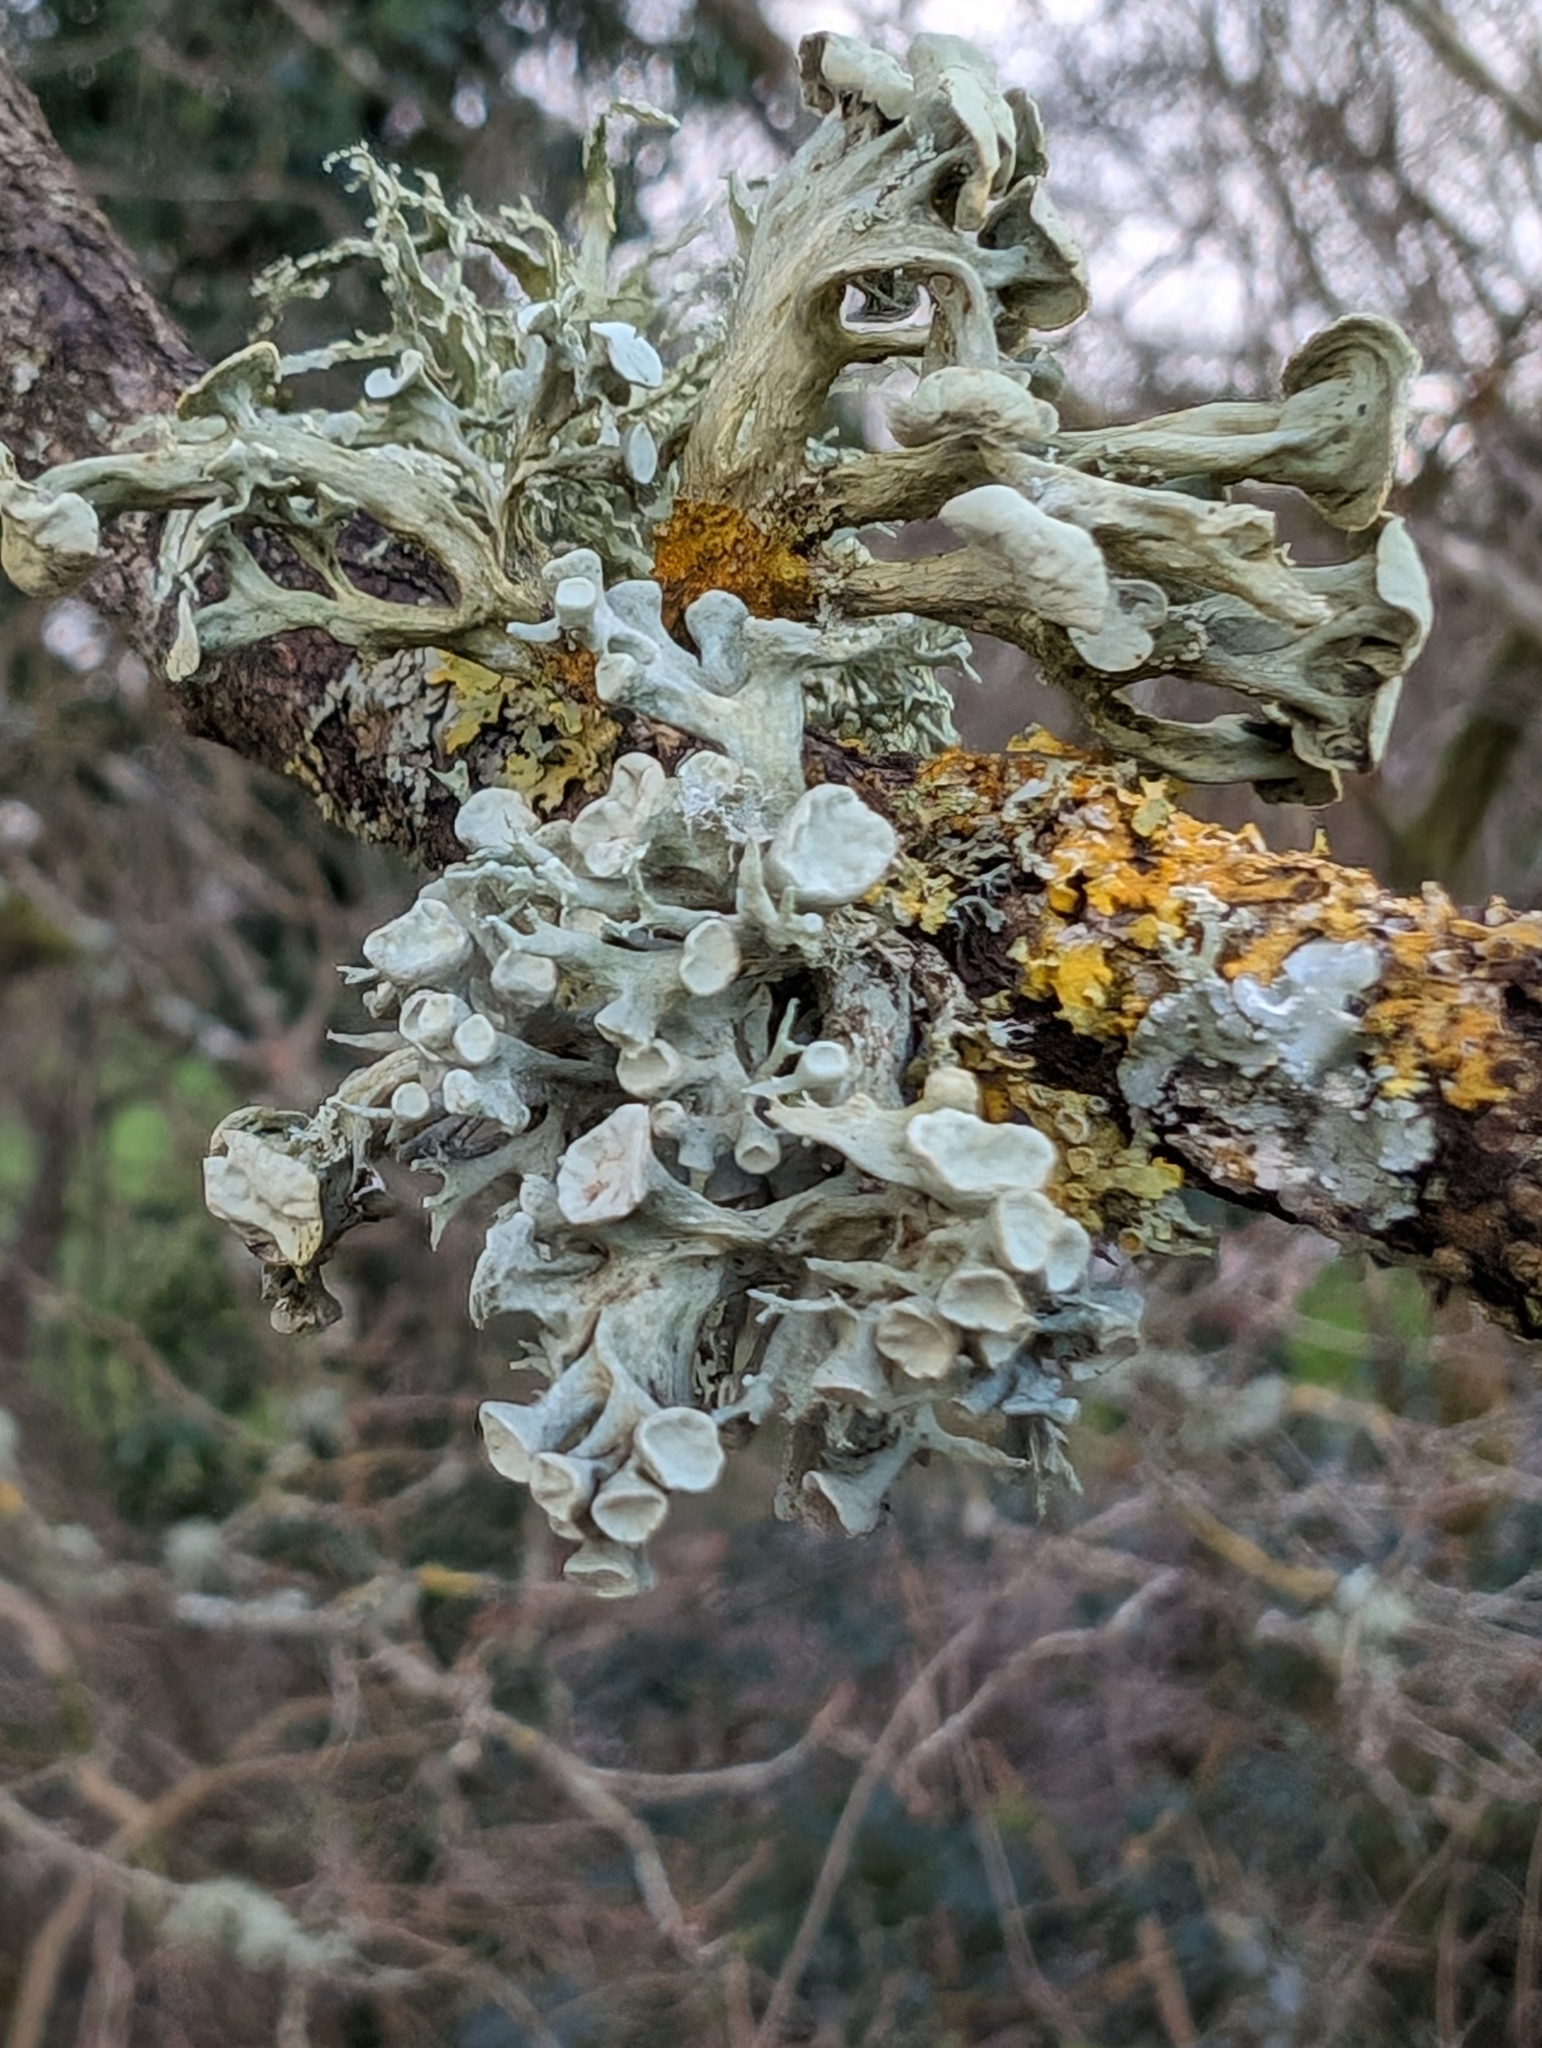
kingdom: Fungi
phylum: Ascomycota
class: Lecanoromycetes
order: Lecanorales
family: Ramalinaceae
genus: Ramalina
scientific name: Ramalina fastigiata
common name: Dotted ribbon lichen
